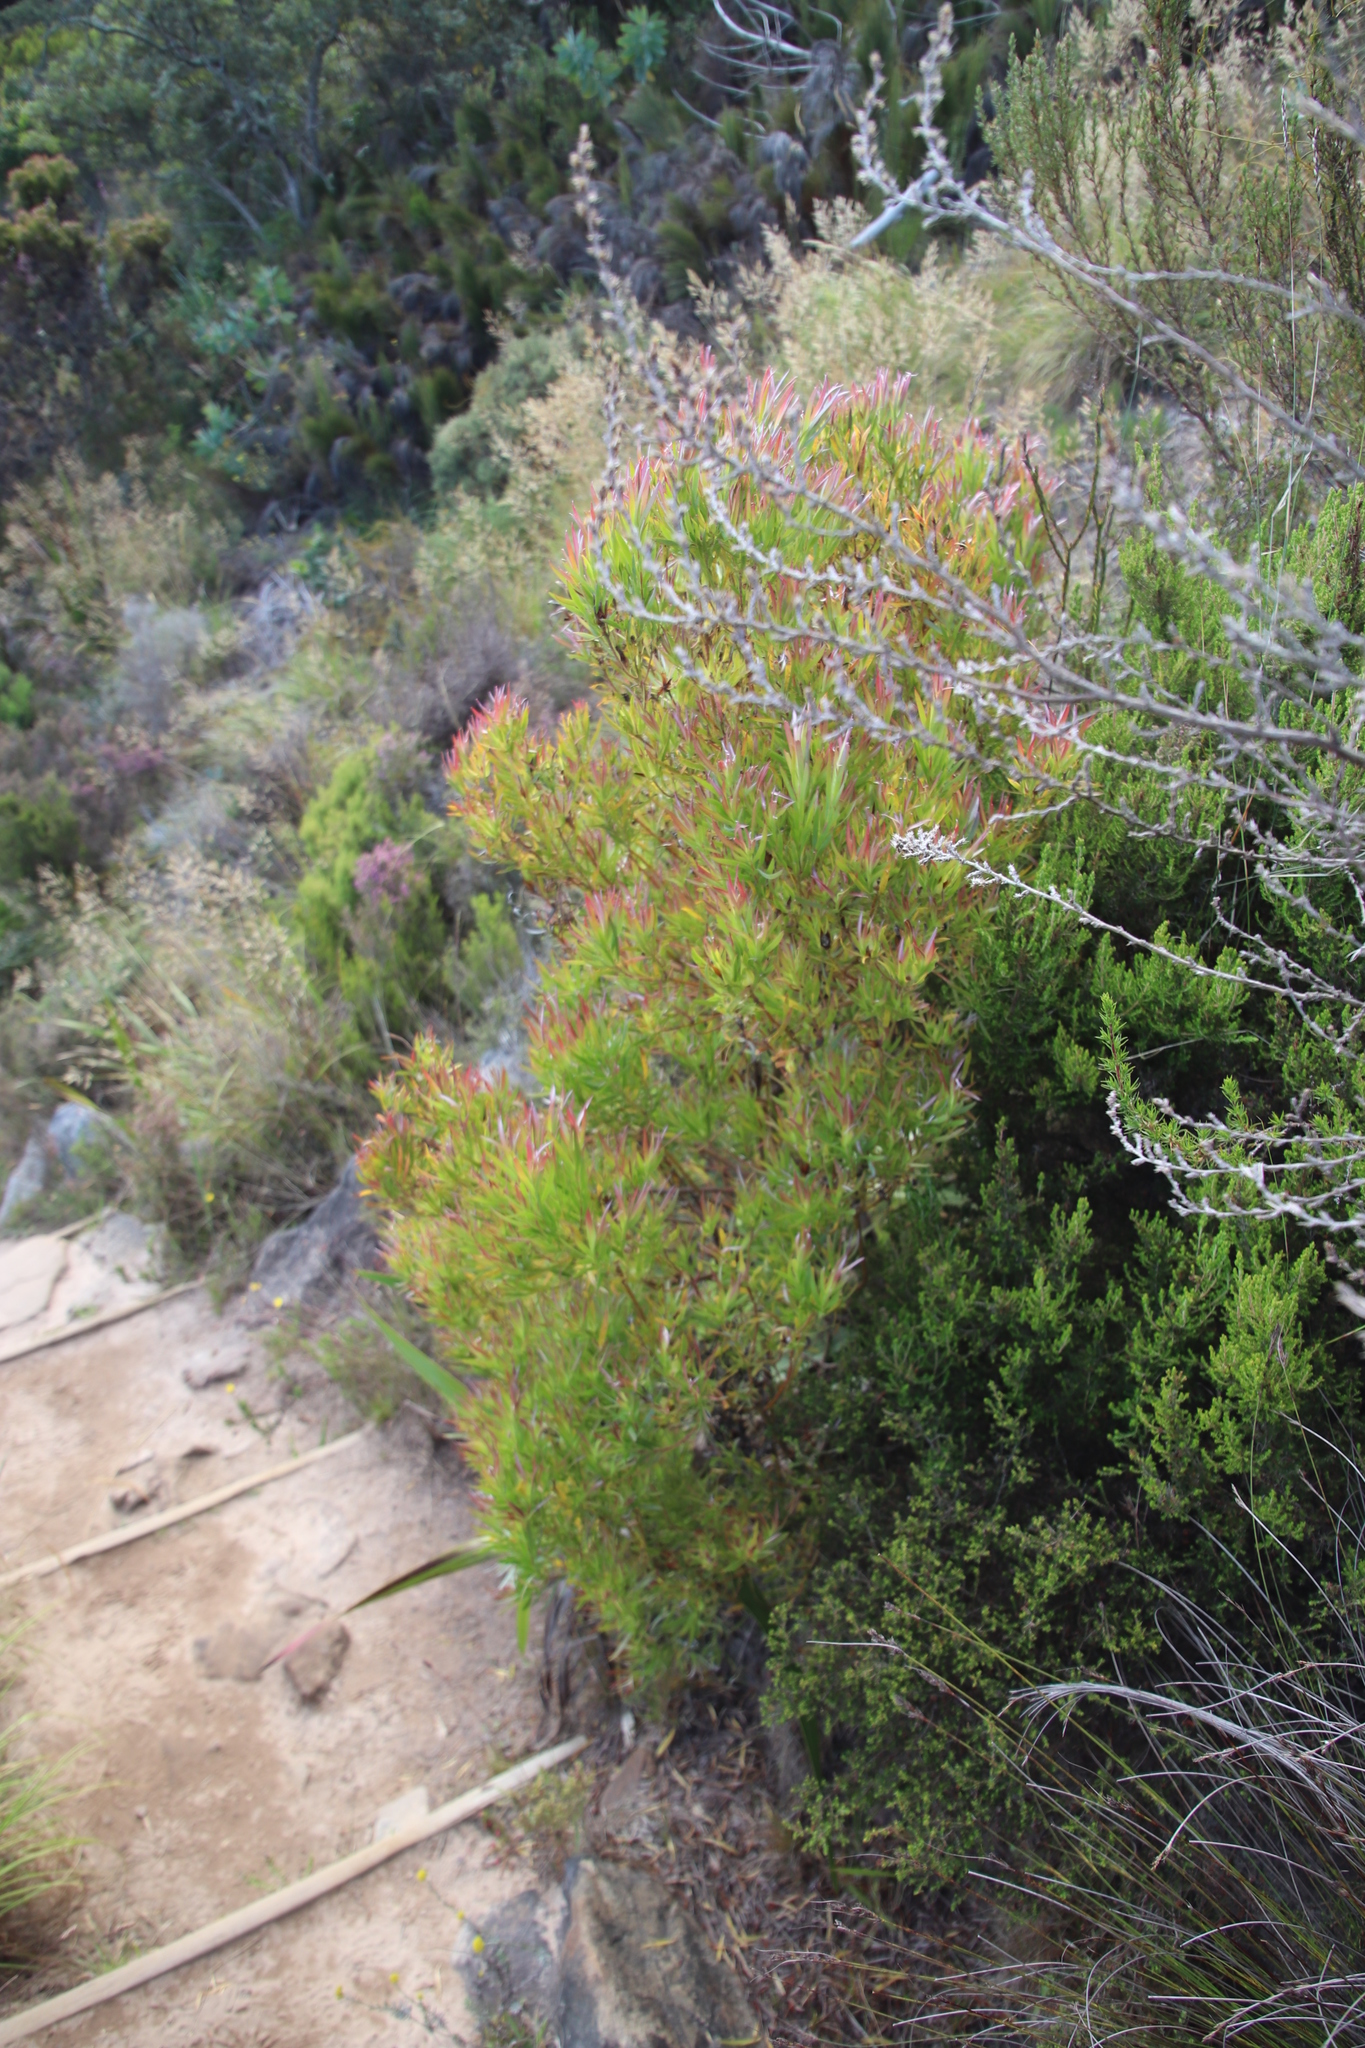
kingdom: Plantae
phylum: Tracheophyta
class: Magnoliopsida
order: Proteales
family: Proteaceae
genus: Leucadendron
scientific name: Leucadendron xanthoconus
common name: Sickle-leaf conebush
